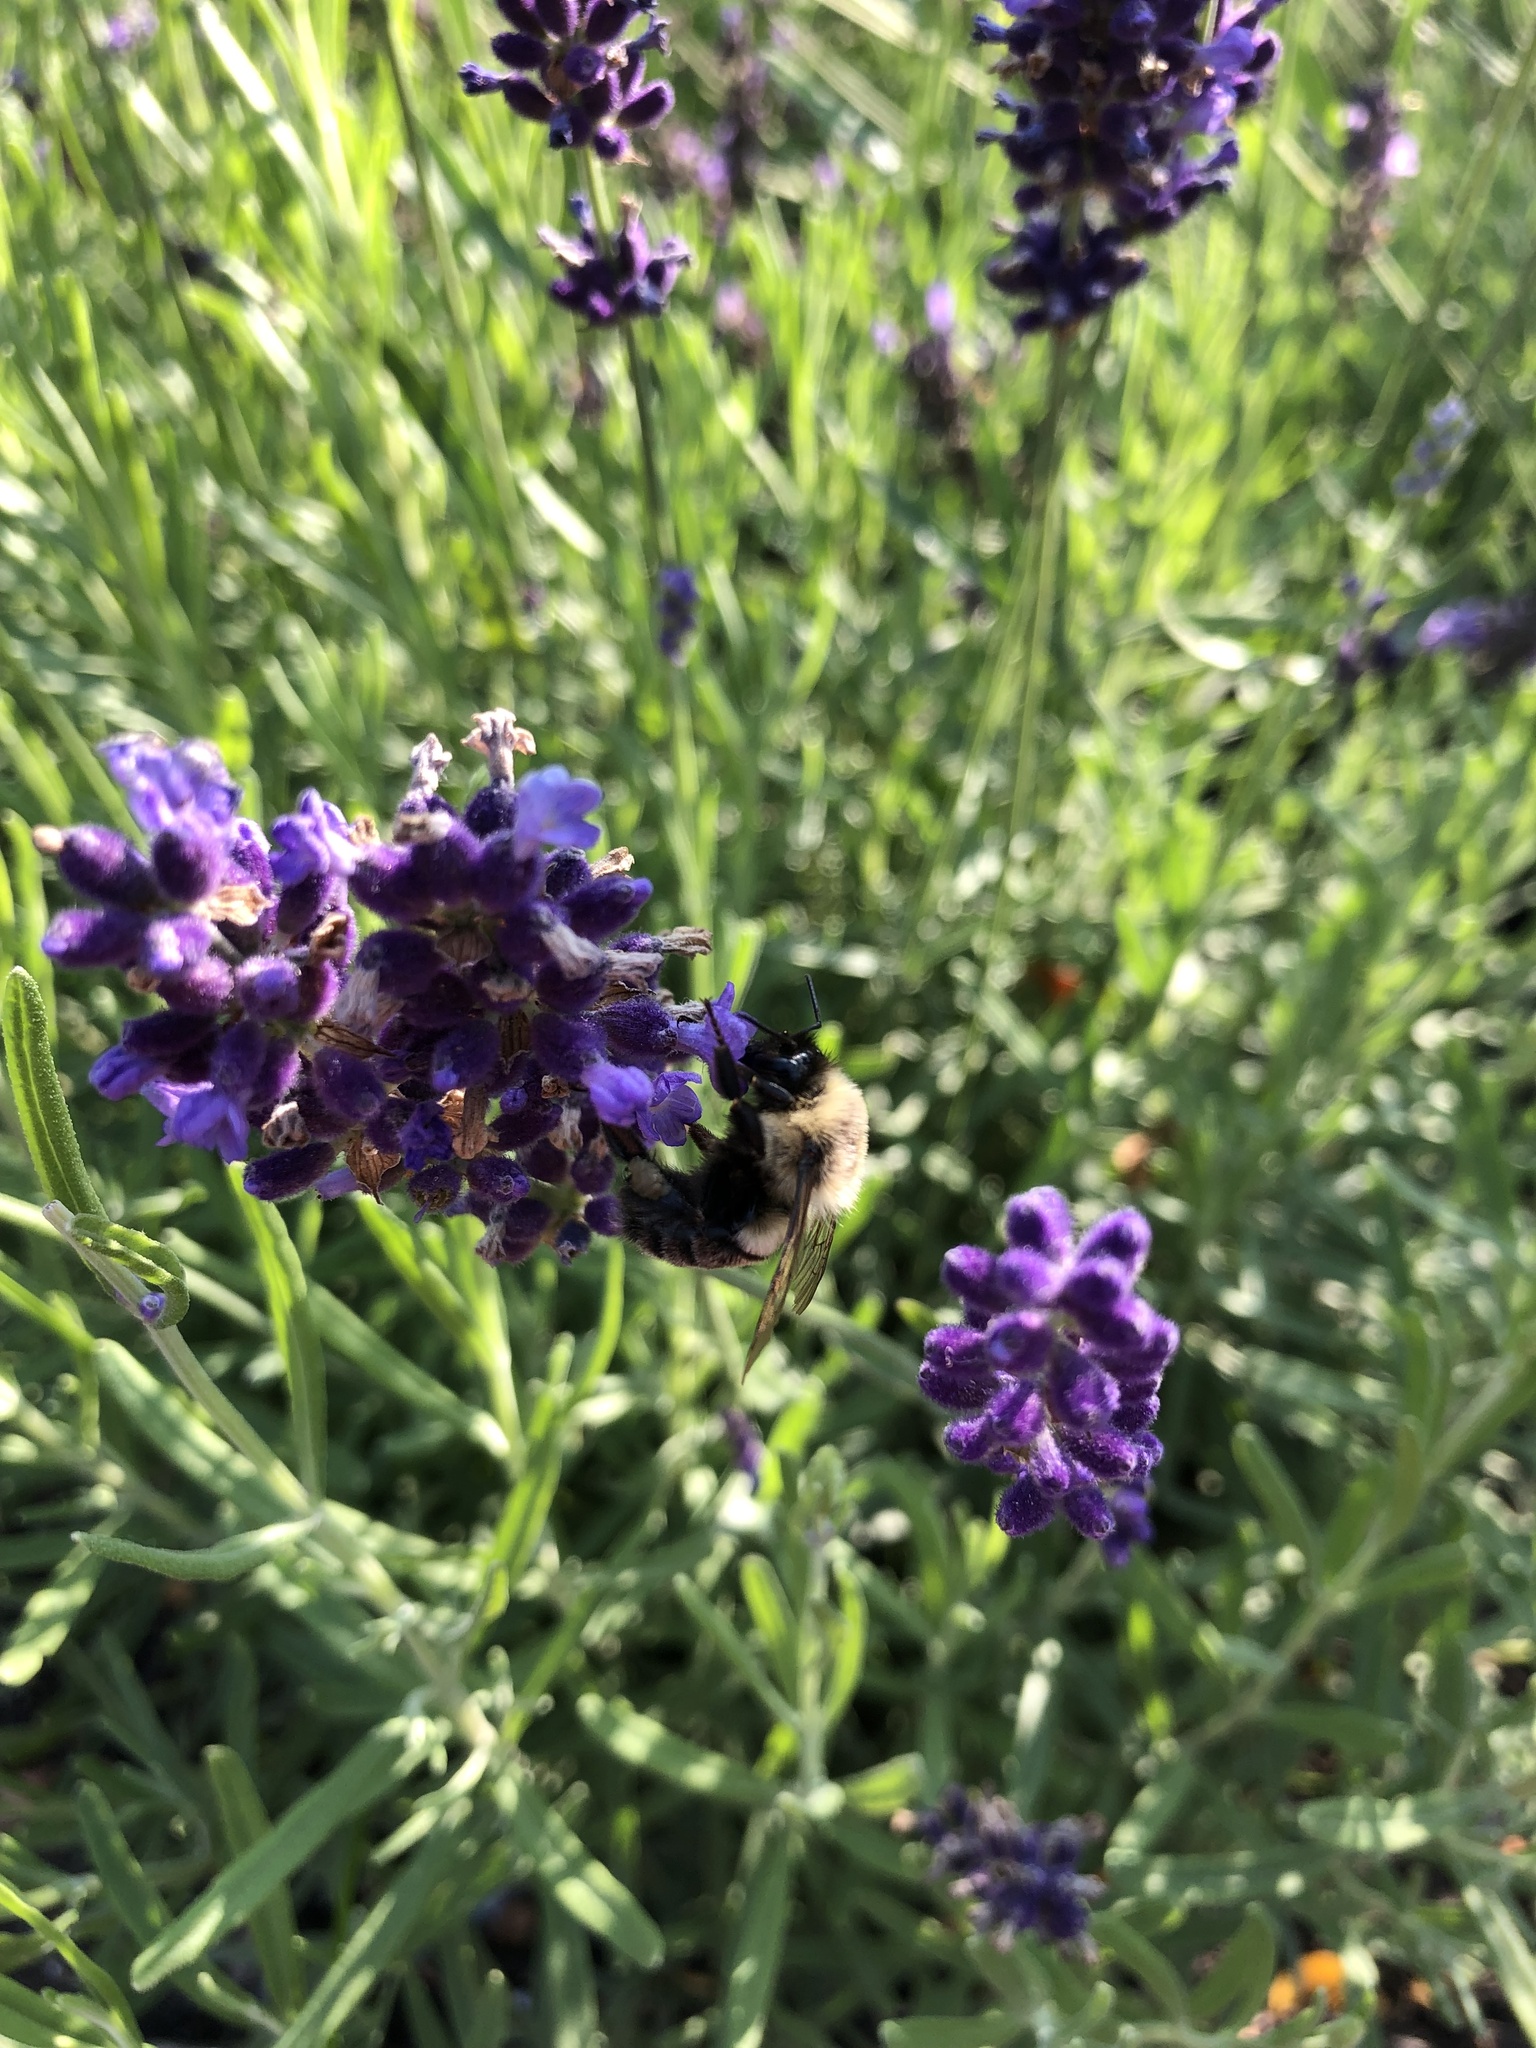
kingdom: Animalia
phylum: Arthropoda
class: Insecta
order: Hymenoptera
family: Apidae
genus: Bombus
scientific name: Bombus impatiens
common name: Common eastern bumble bee
